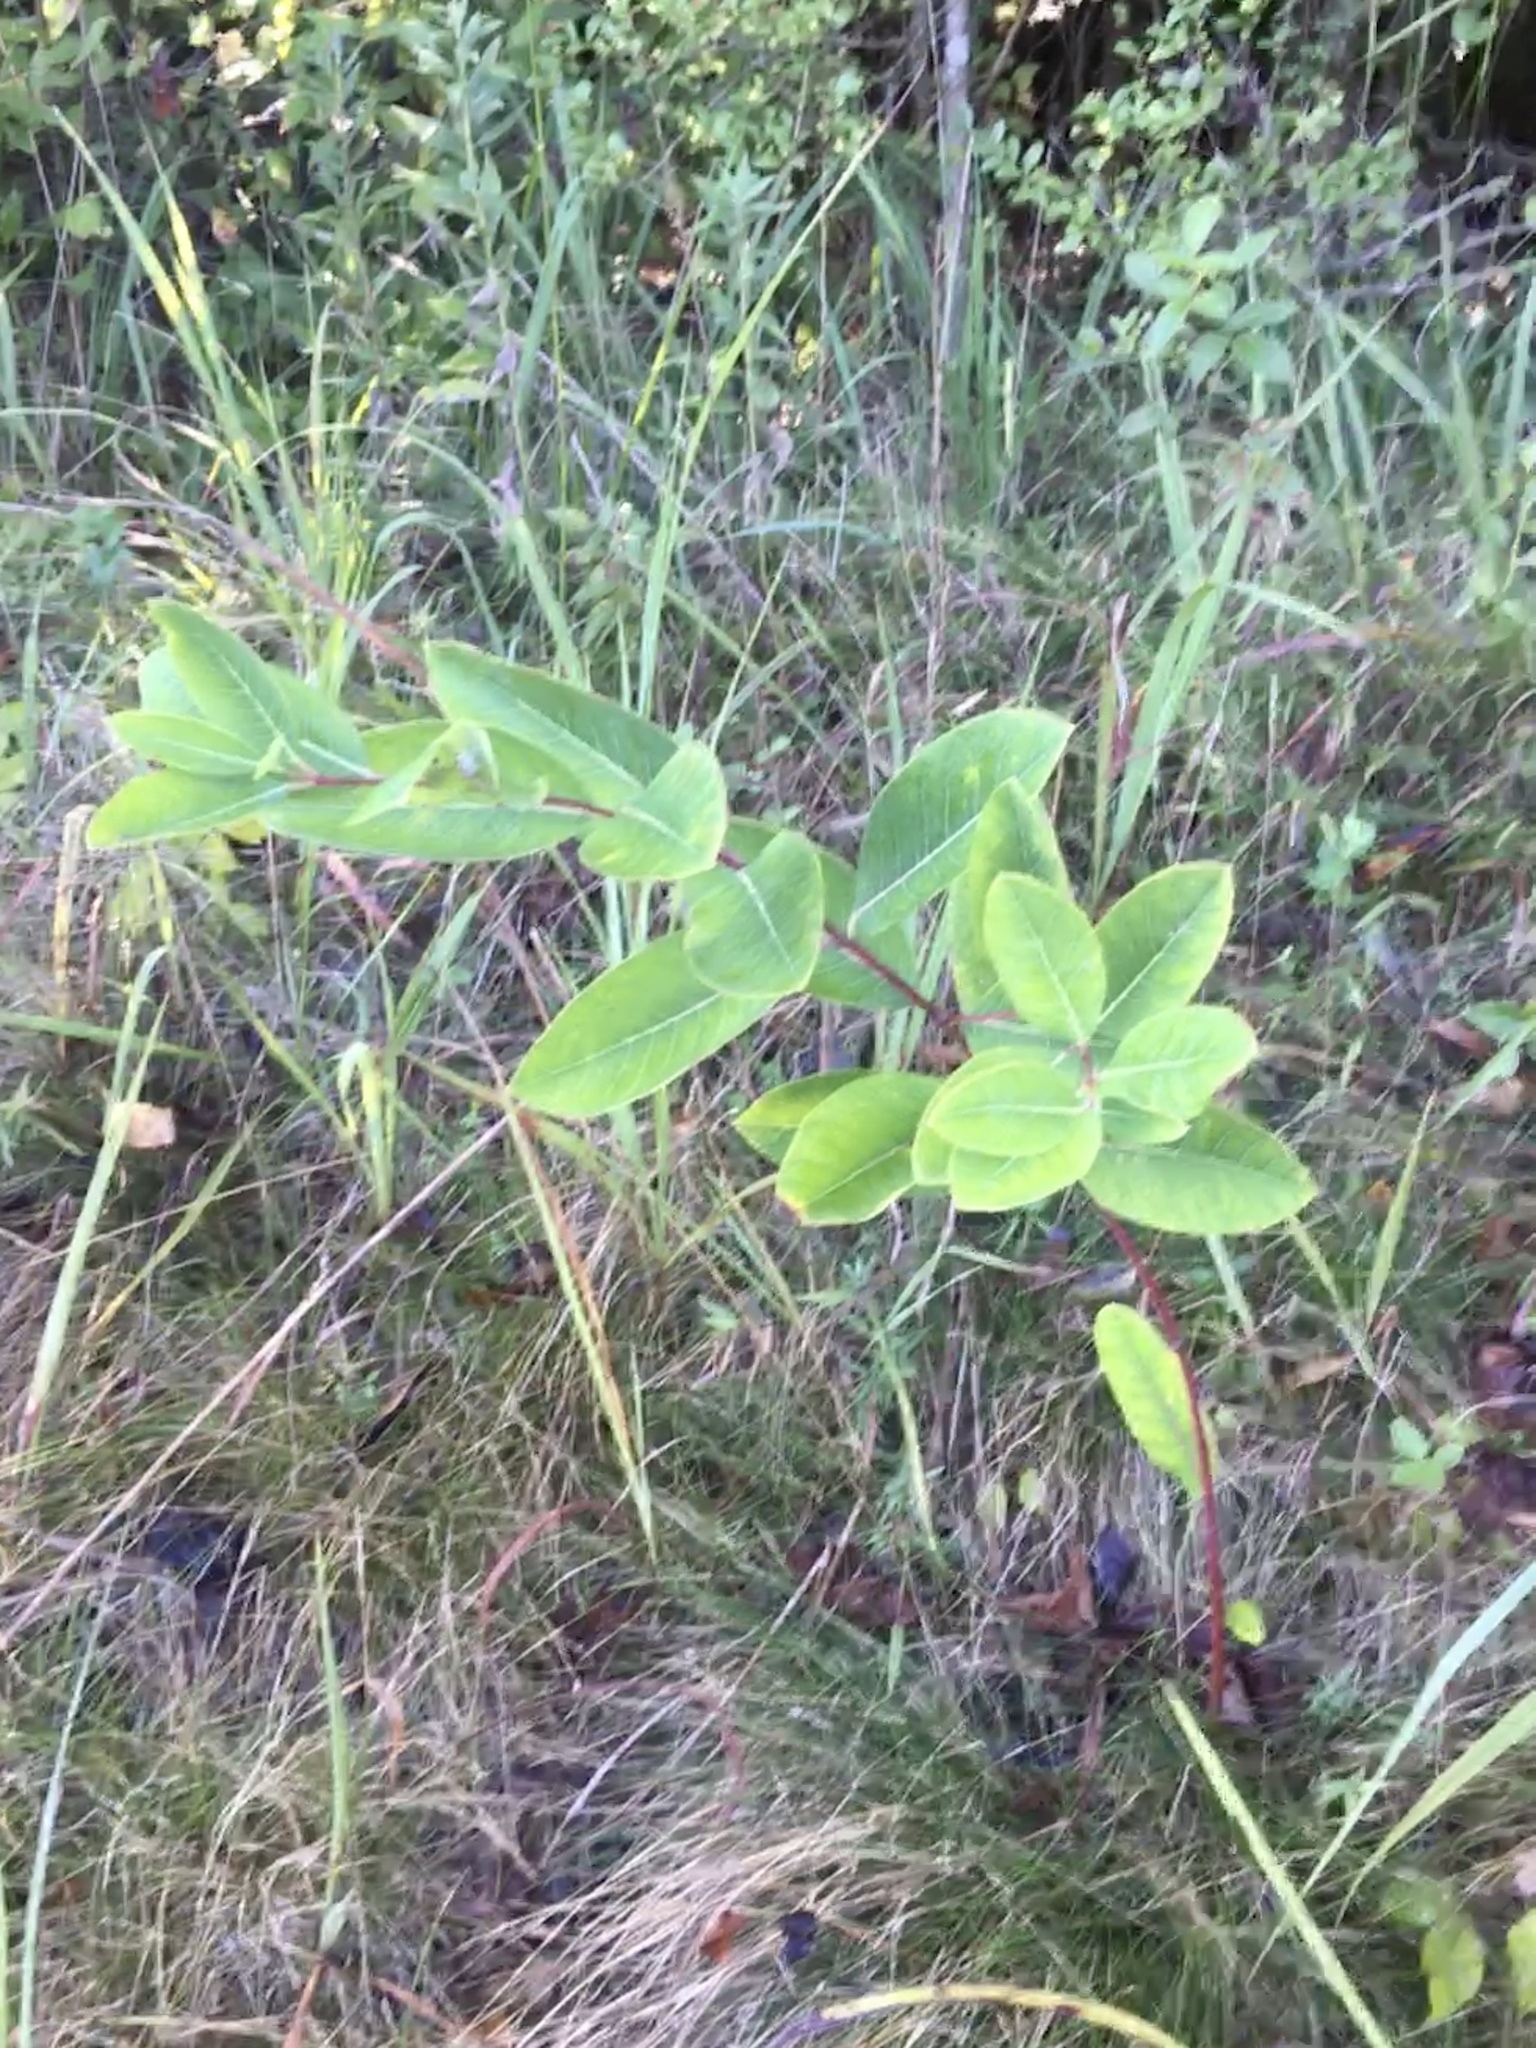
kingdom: Plantae
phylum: Tracheophyta
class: Magnoliopsida
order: Gentianales
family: Apocynaceae
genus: Apocynum
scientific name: Apocynum cannabinum
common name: Hemp dogbane
